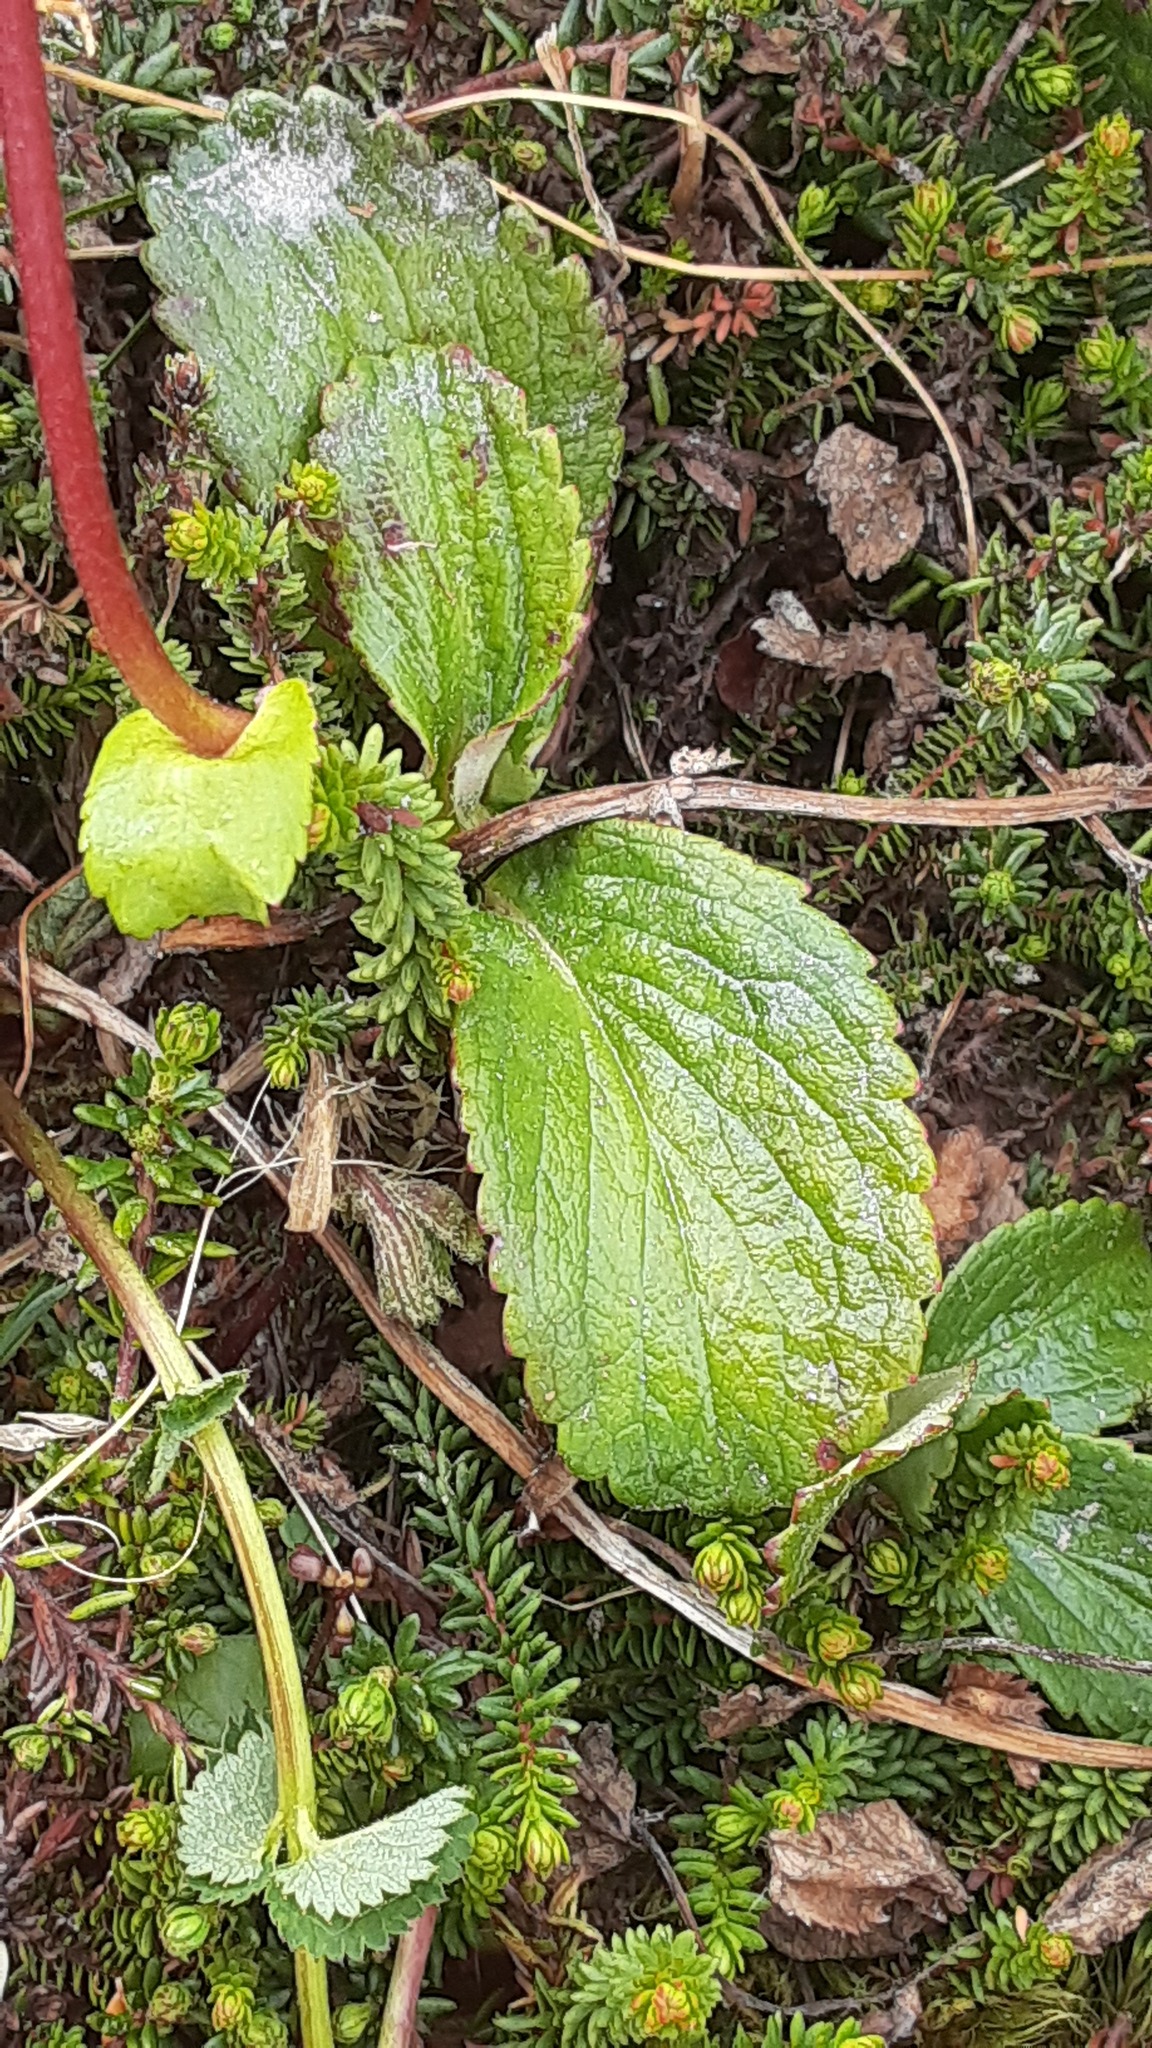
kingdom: Plantae
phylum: Tracheophyta
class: Magnoliopsida
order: Saxifragales
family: Saxifragaceae
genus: Leptarrhena
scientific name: Leptarrhena pyrolifolia
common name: Leatherleaf-saxifrage
